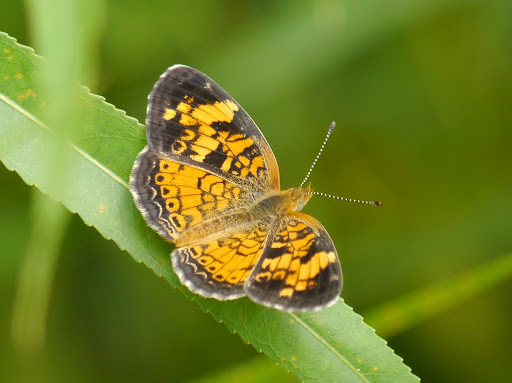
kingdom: Animalia
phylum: Arthropoda
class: Insecta
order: Lepidoptera
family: Nymphalidae
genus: Phyciodes
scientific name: Phyciodes tharos
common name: Pearl crescent
